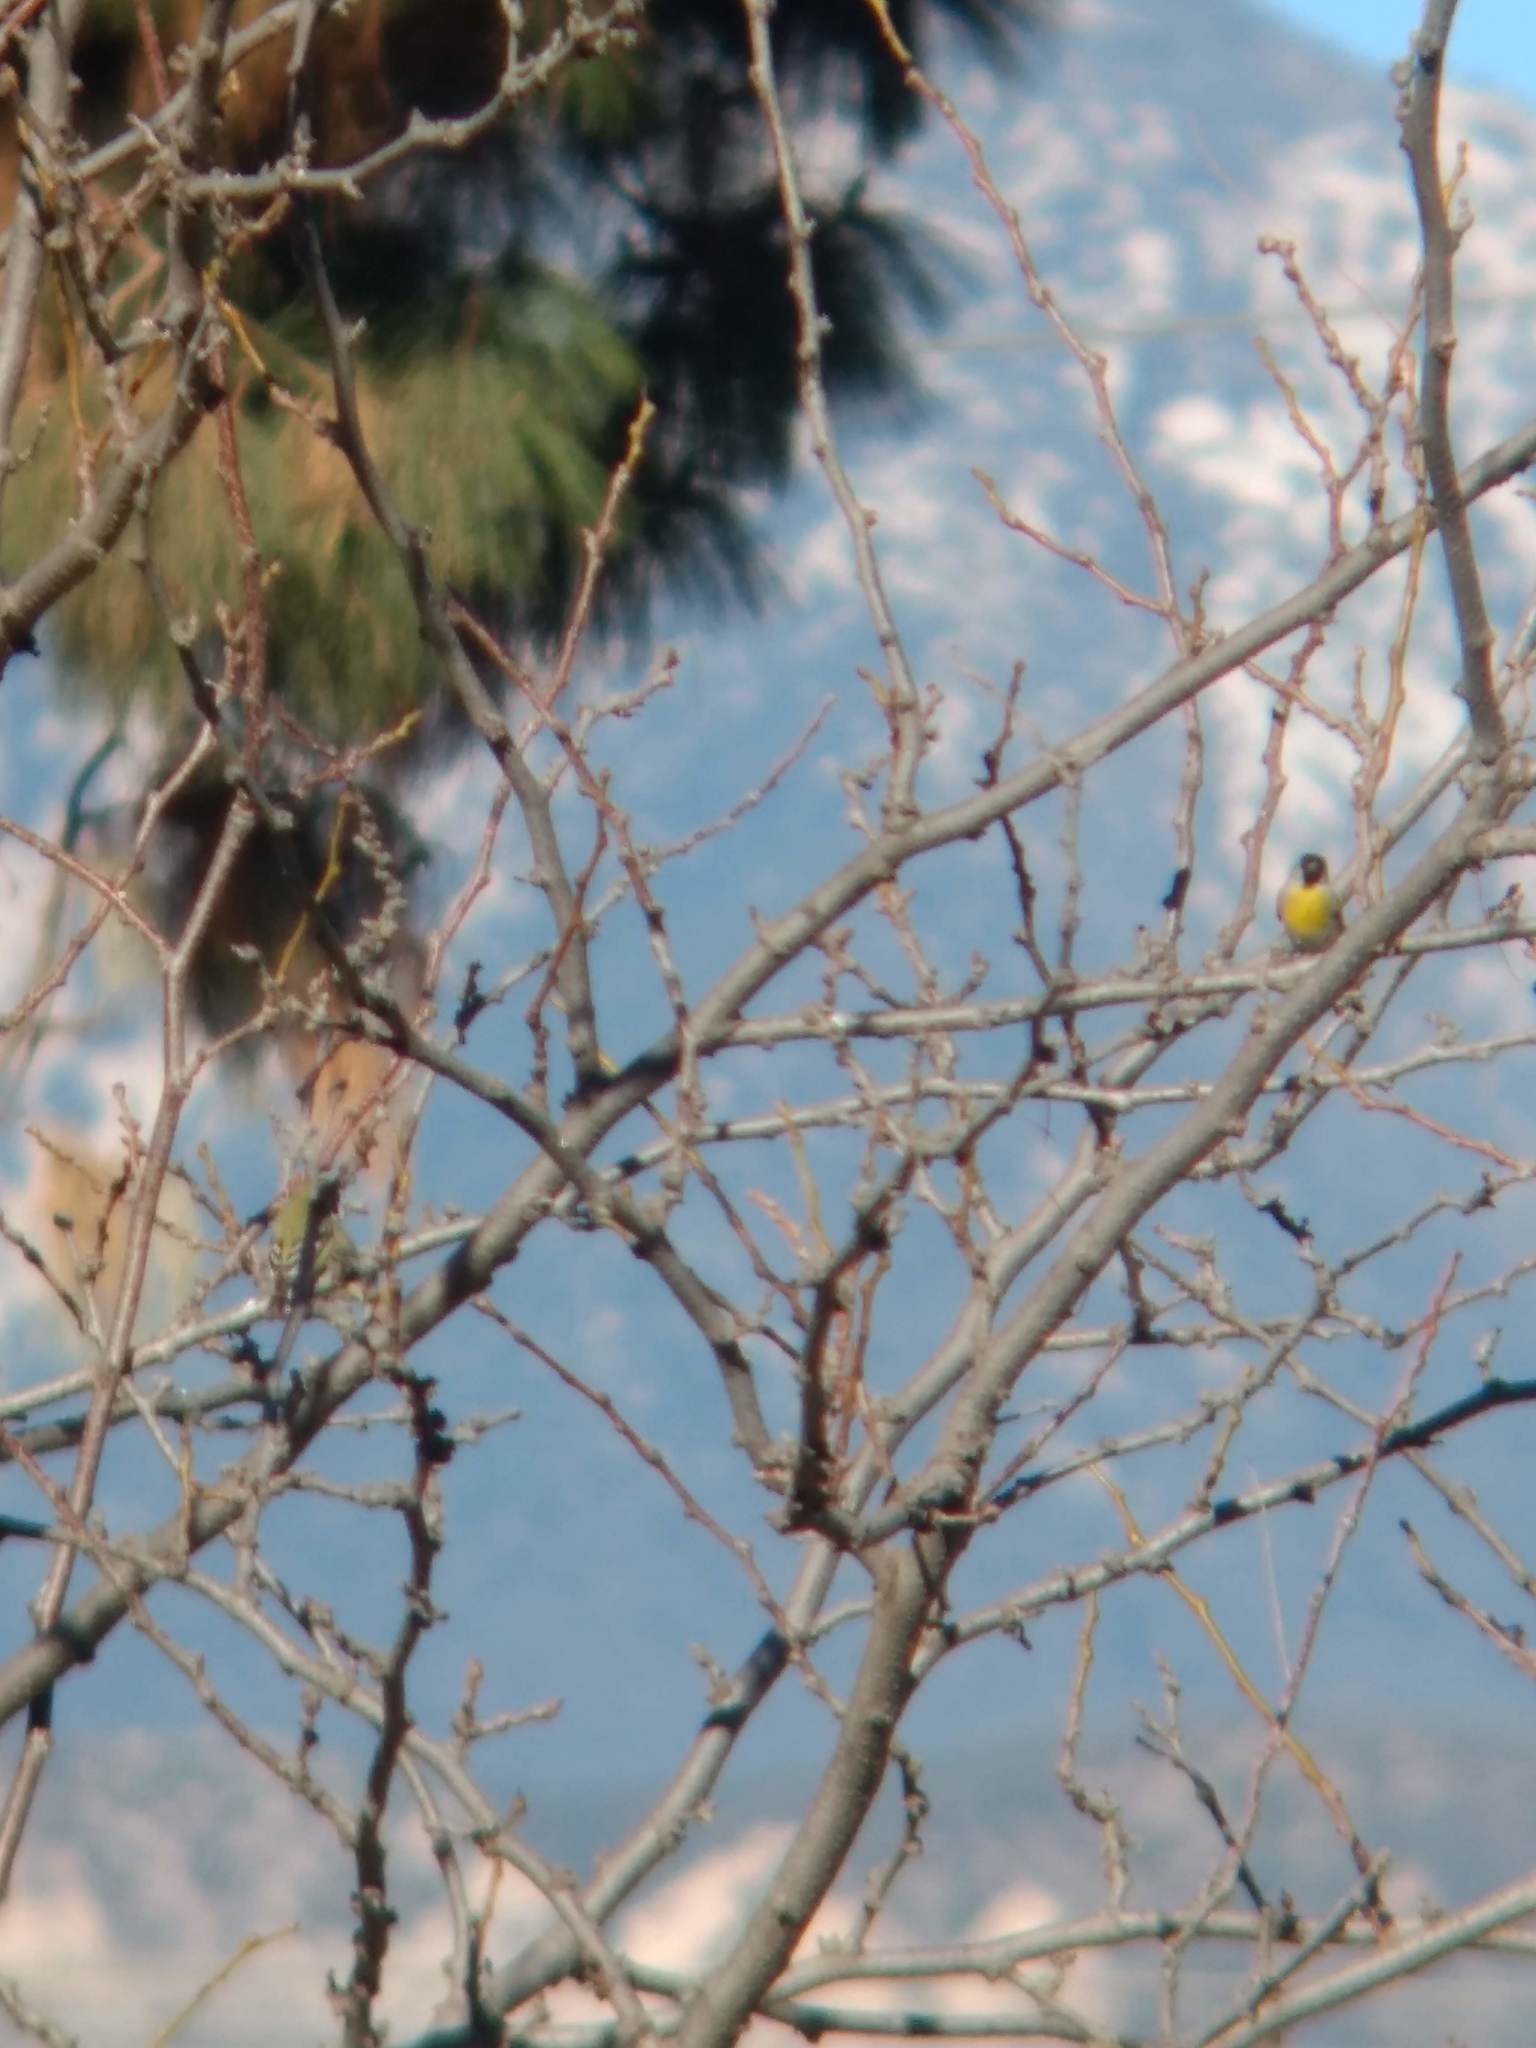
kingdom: Animalia
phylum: Chordata
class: Aves
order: Passeriformes
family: Fringillidae
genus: Spinus
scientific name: Spinus lawrencei
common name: Lawrence's goldfinch
